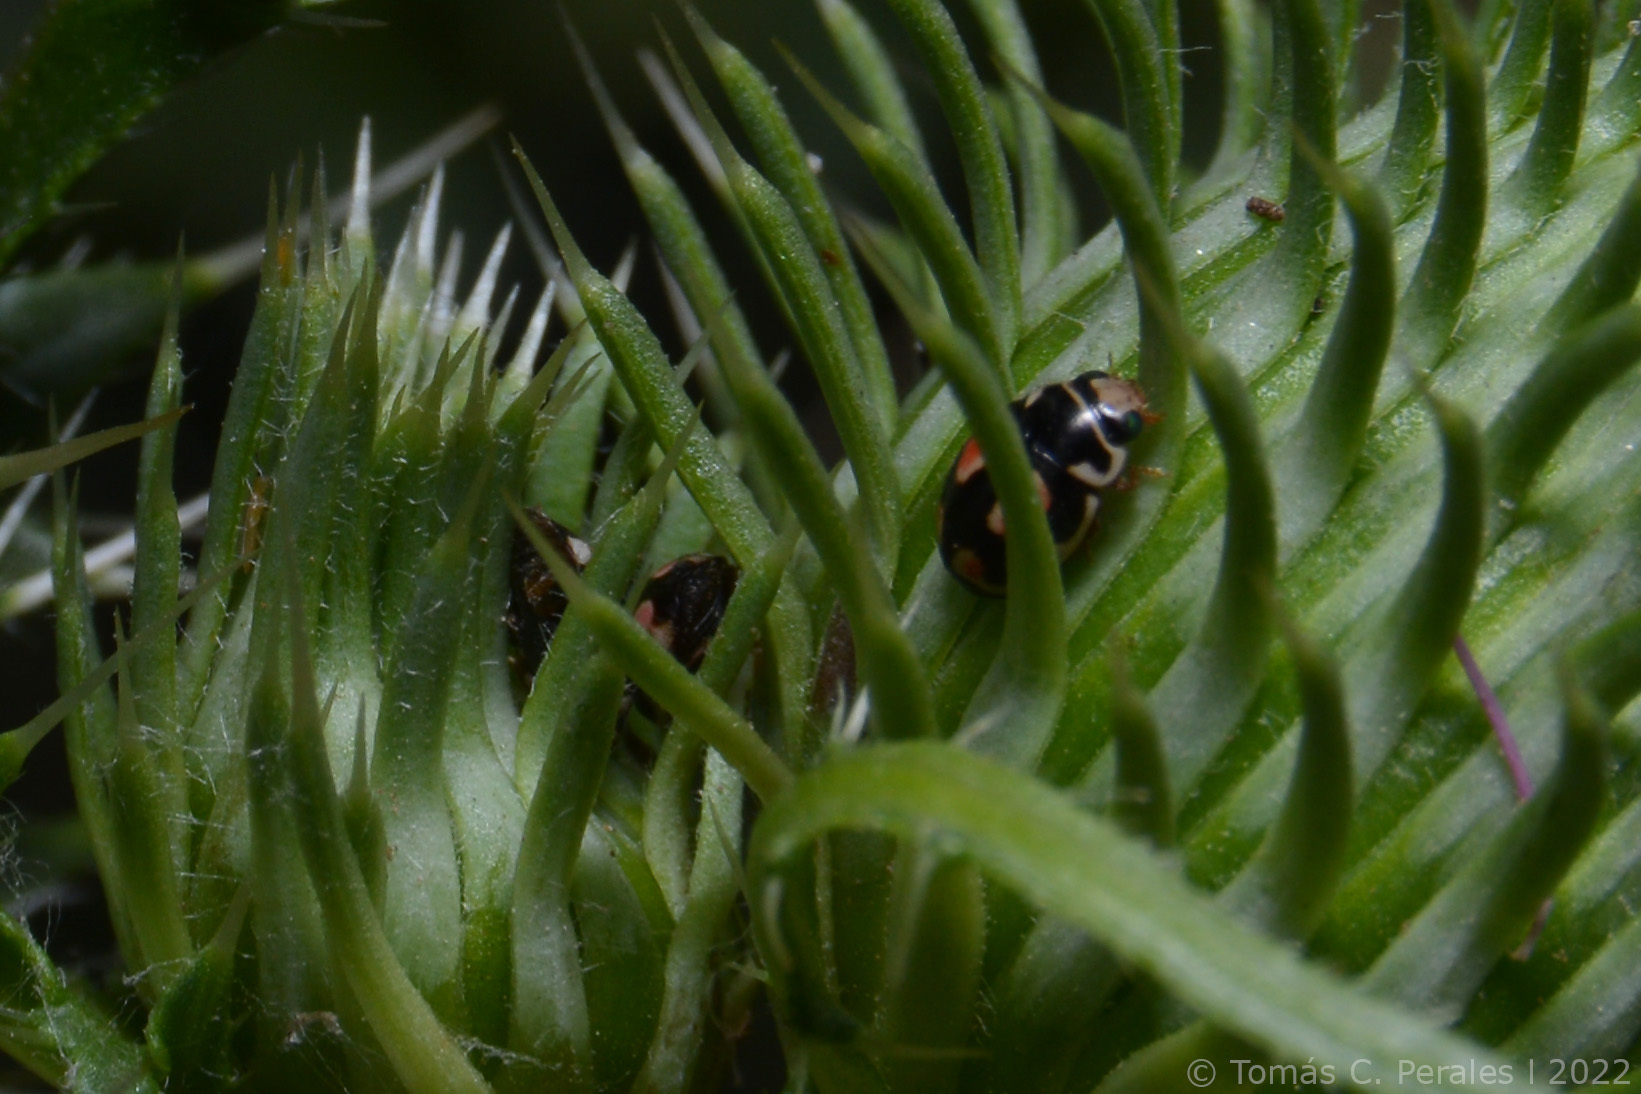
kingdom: Animalia
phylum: Arthropoda
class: Insecta
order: Coleoptera
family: Coccinellidae
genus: Hyperaspis
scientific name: Hyperaspis festiva
